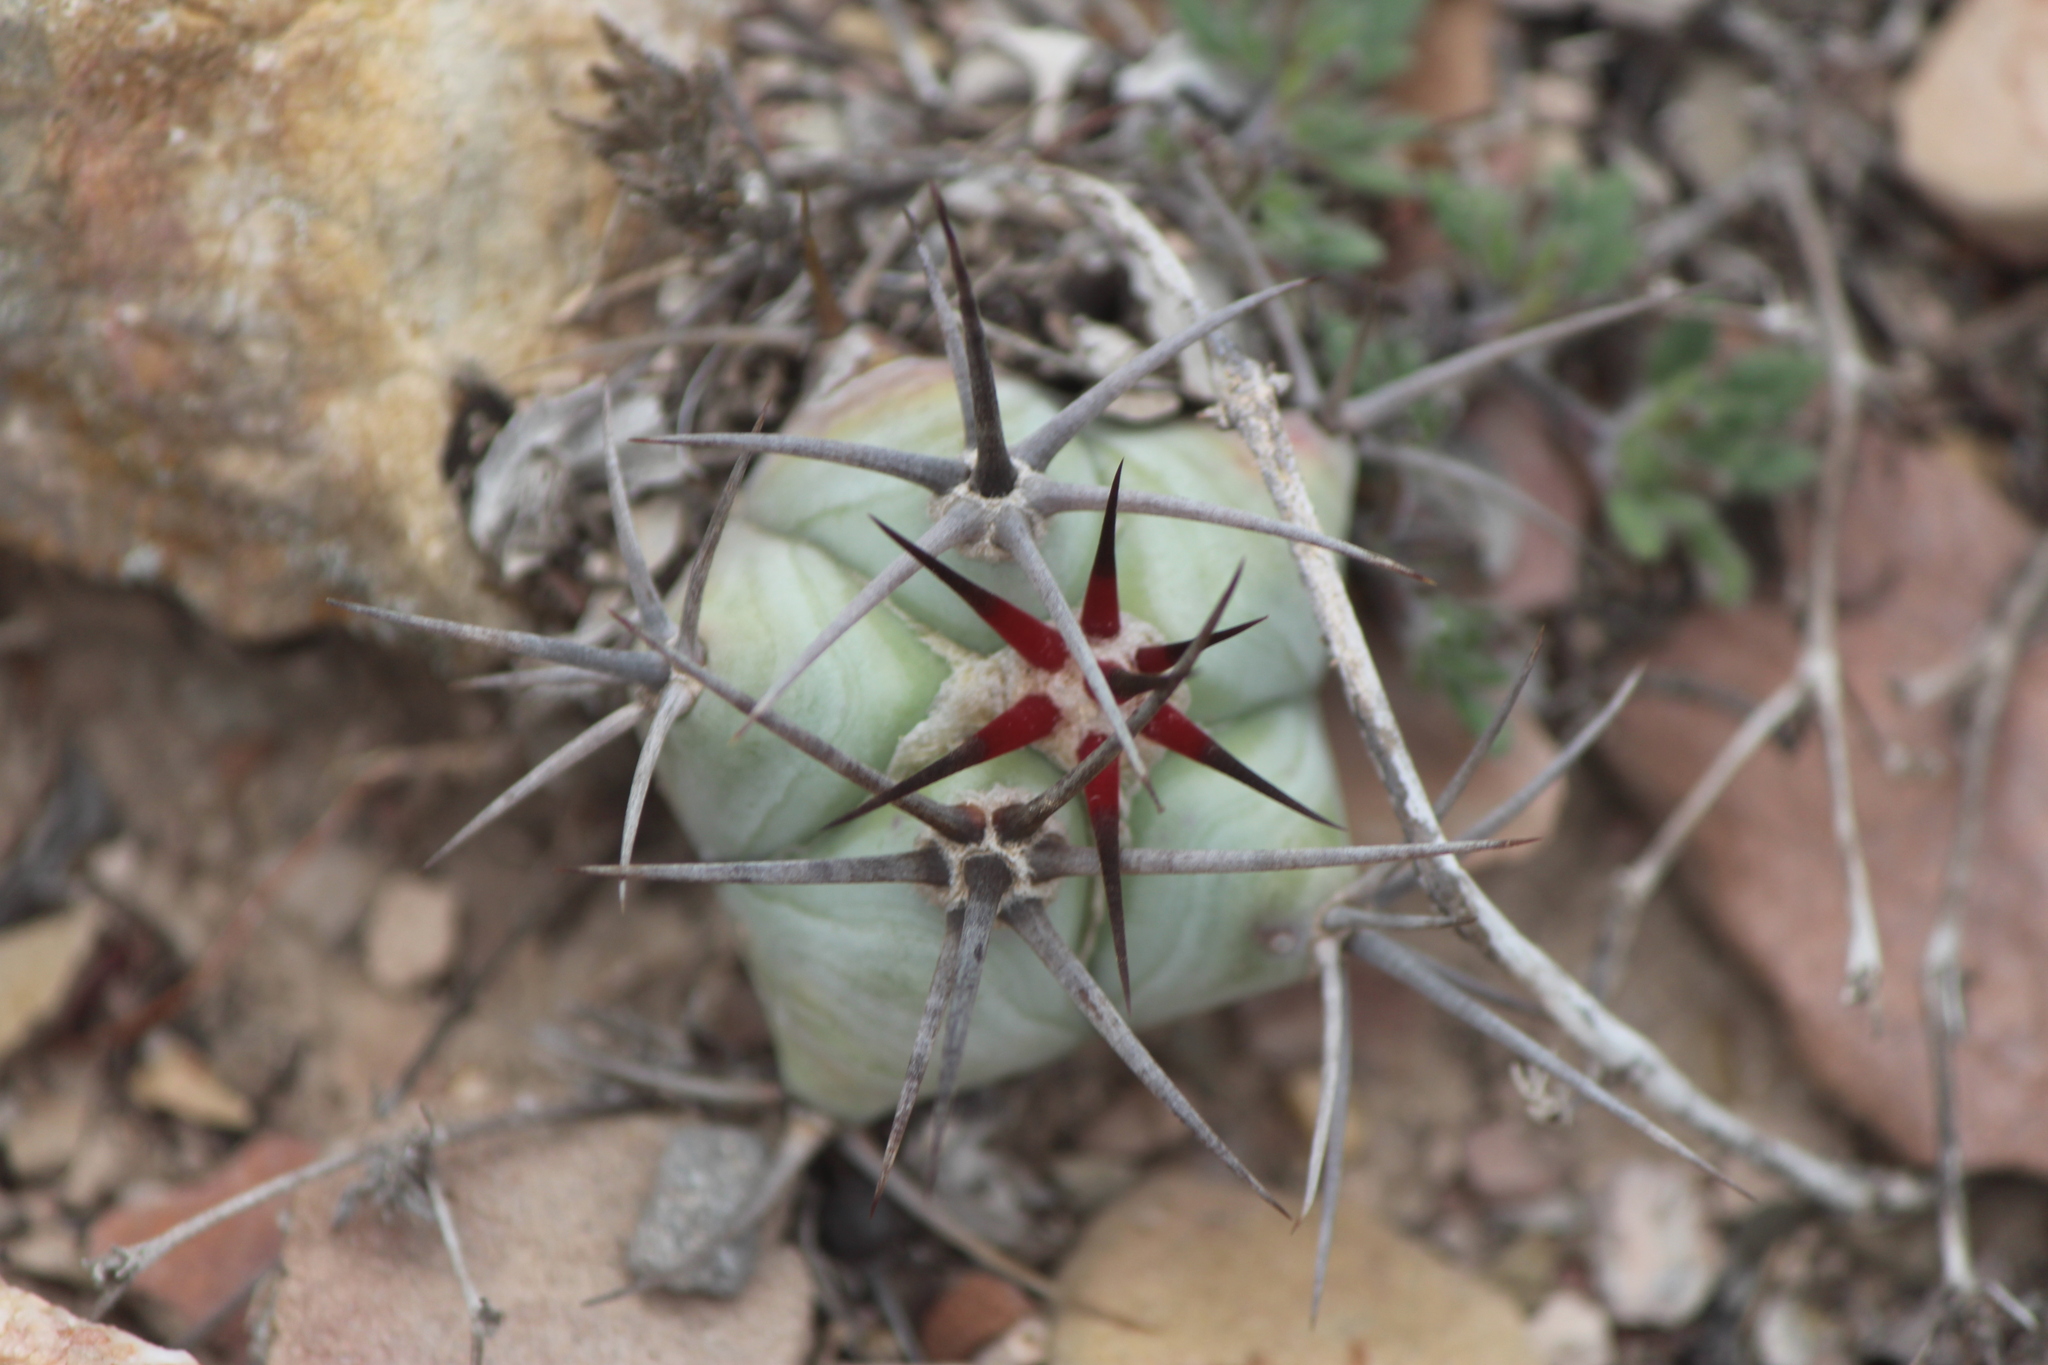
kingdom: Plantae
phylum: Tracheophyta
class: Magnoliopsida
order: Caryophyllales
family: Cactaceae
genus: Echinocactus
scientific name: Echinocactus platyacanthus
